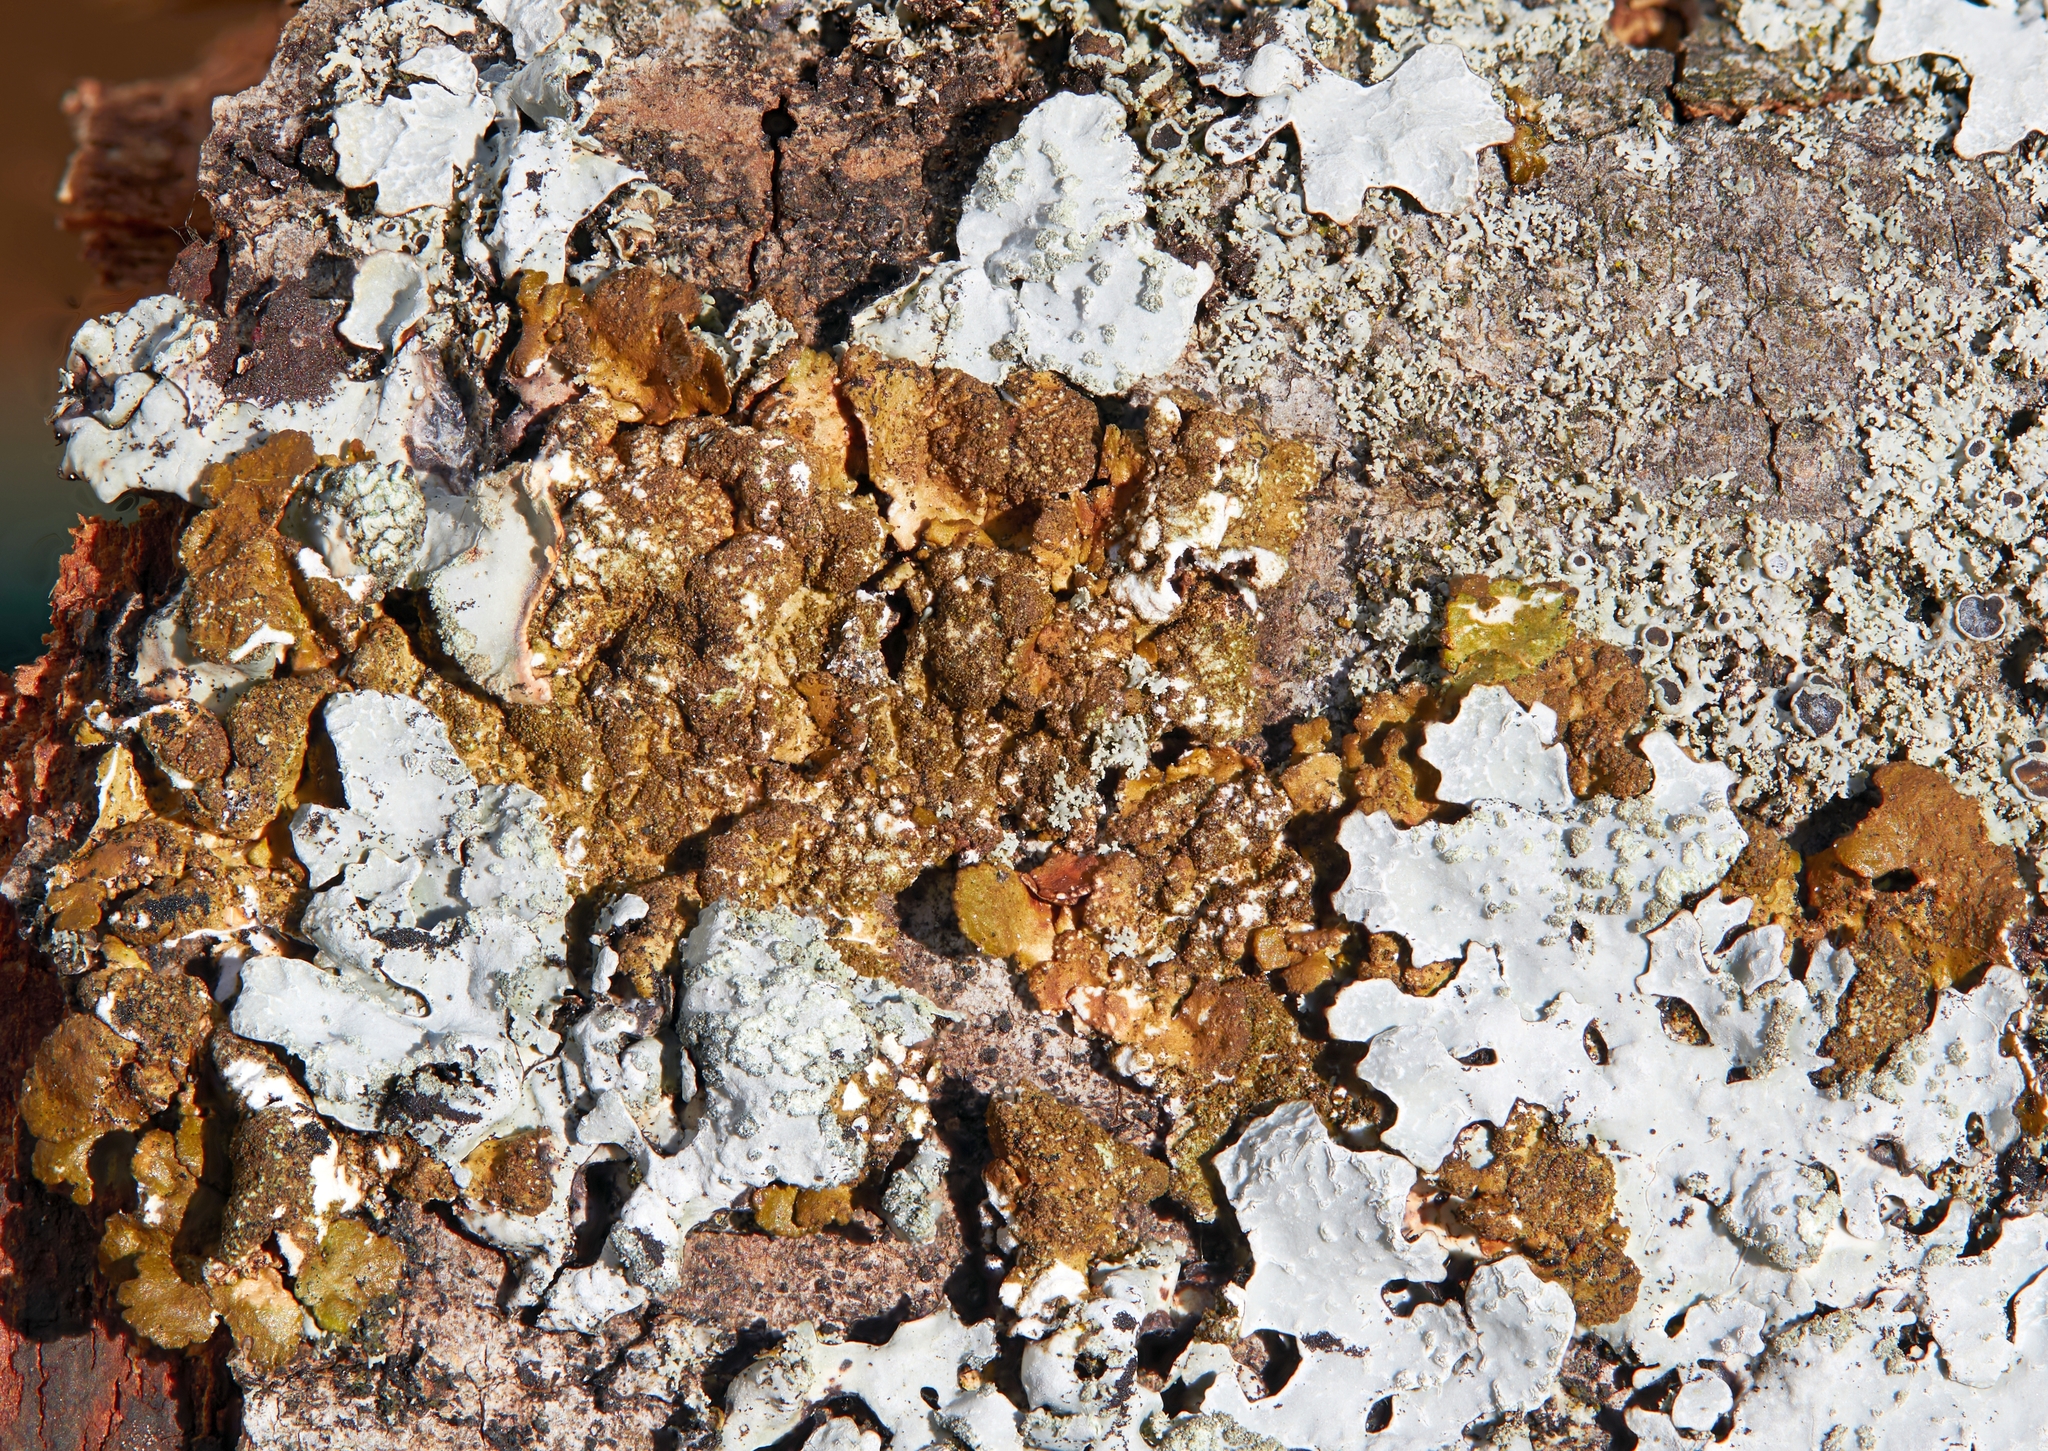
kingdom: Fungi
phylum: Ascomycota
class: Lecanoromycetes
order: Lecanorales
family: Parmeliaceae
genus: Melanelixia
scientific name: Melanelixia subaurifera
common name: Abraded camouflage lichen
